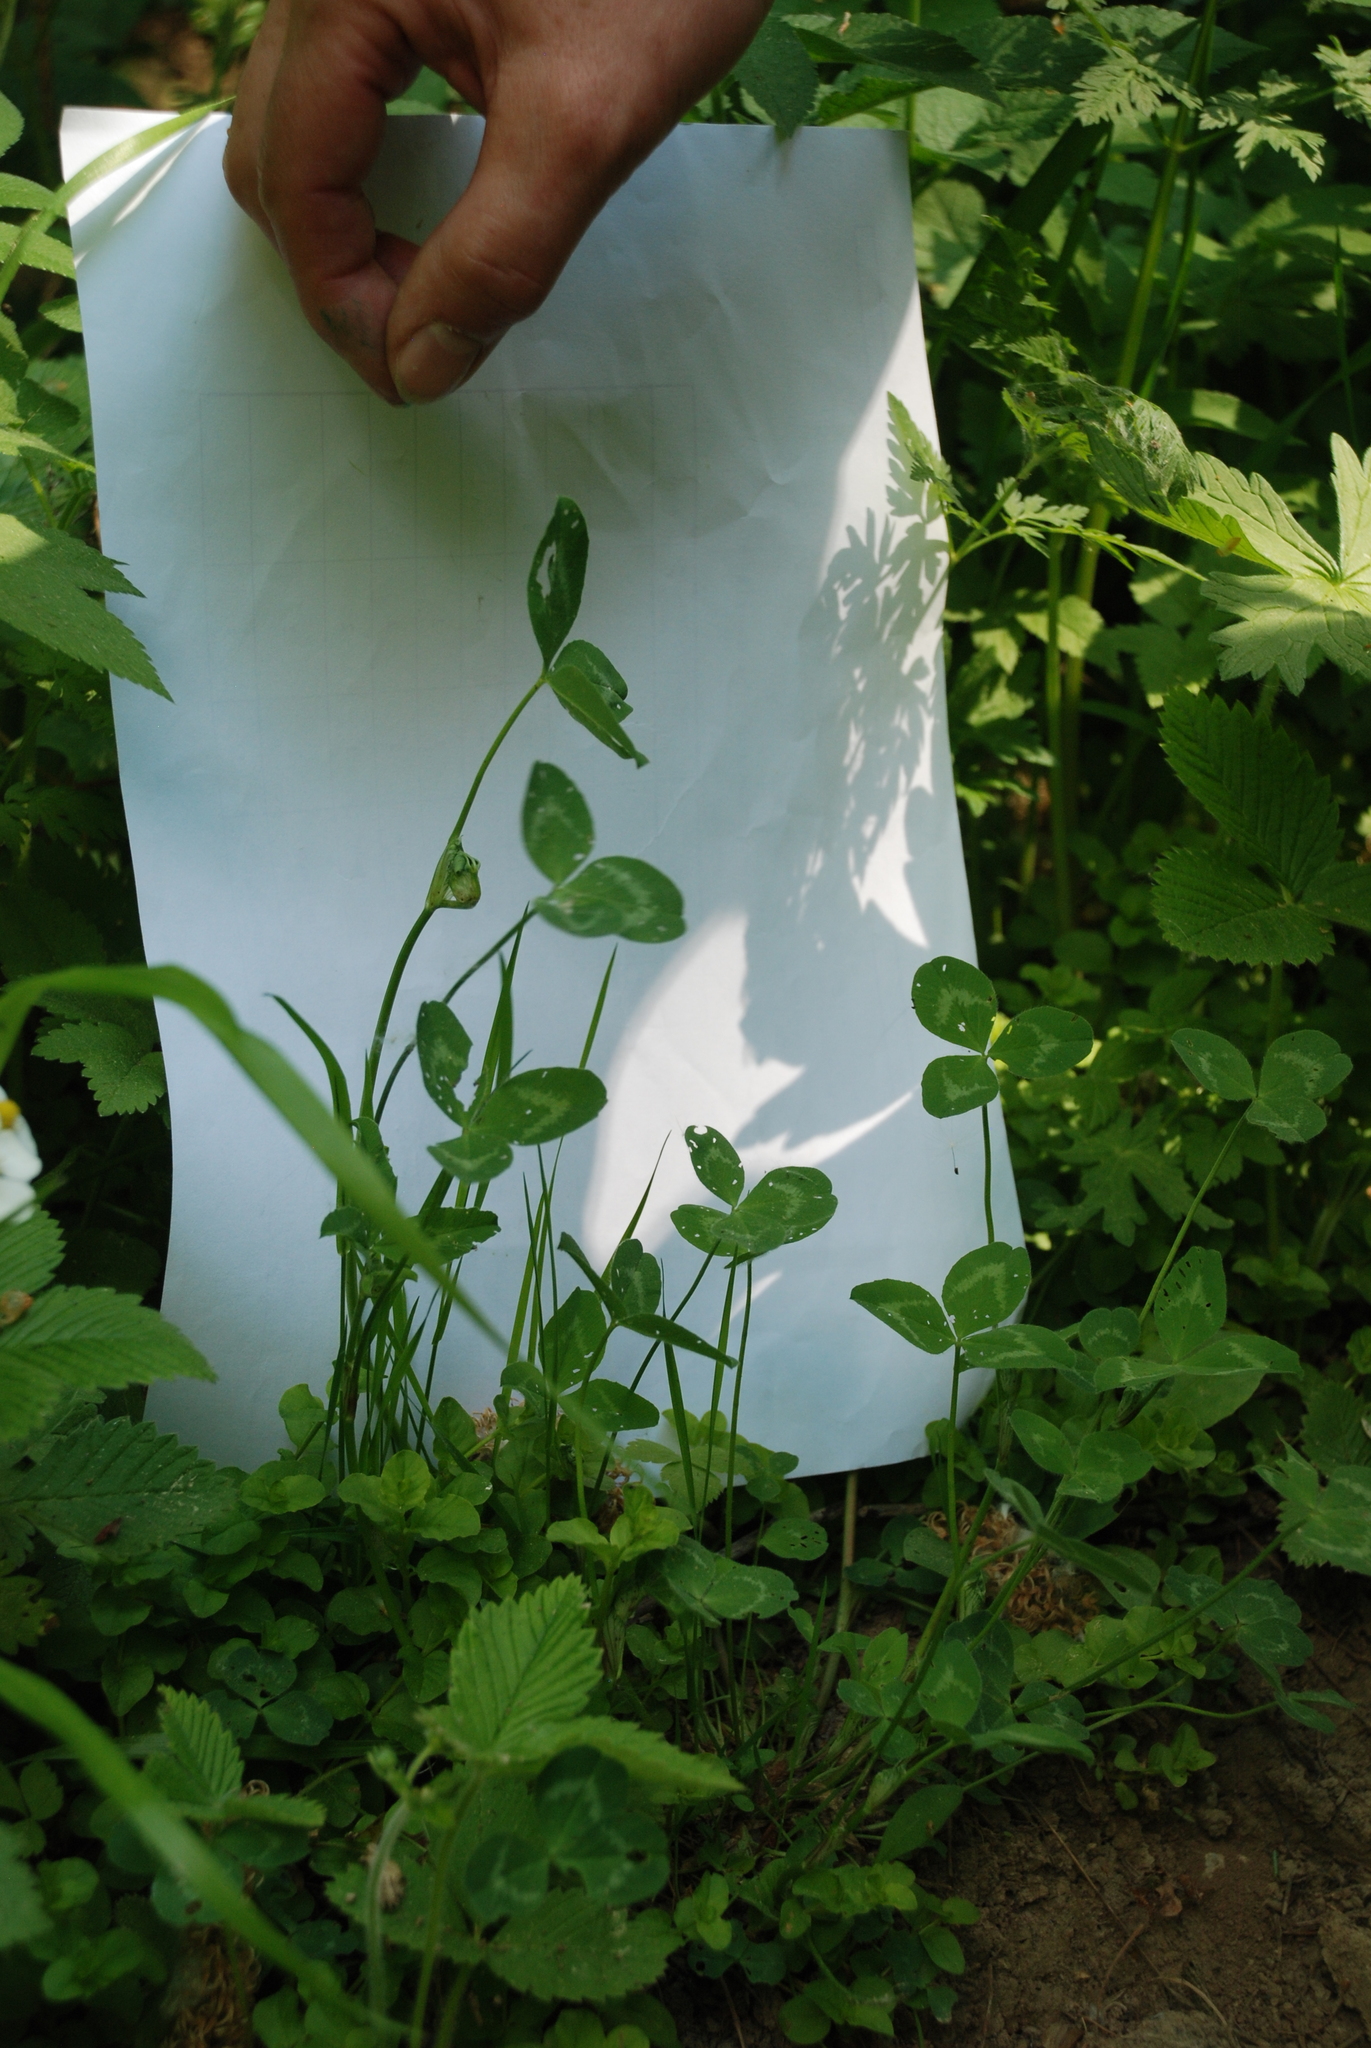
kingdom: Plantae
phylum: Tracheophyta
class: Magnoliopsida
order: Fabales
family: Fabaceae
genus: Trifolium
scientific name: Trifolium pratense
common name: Red clover
